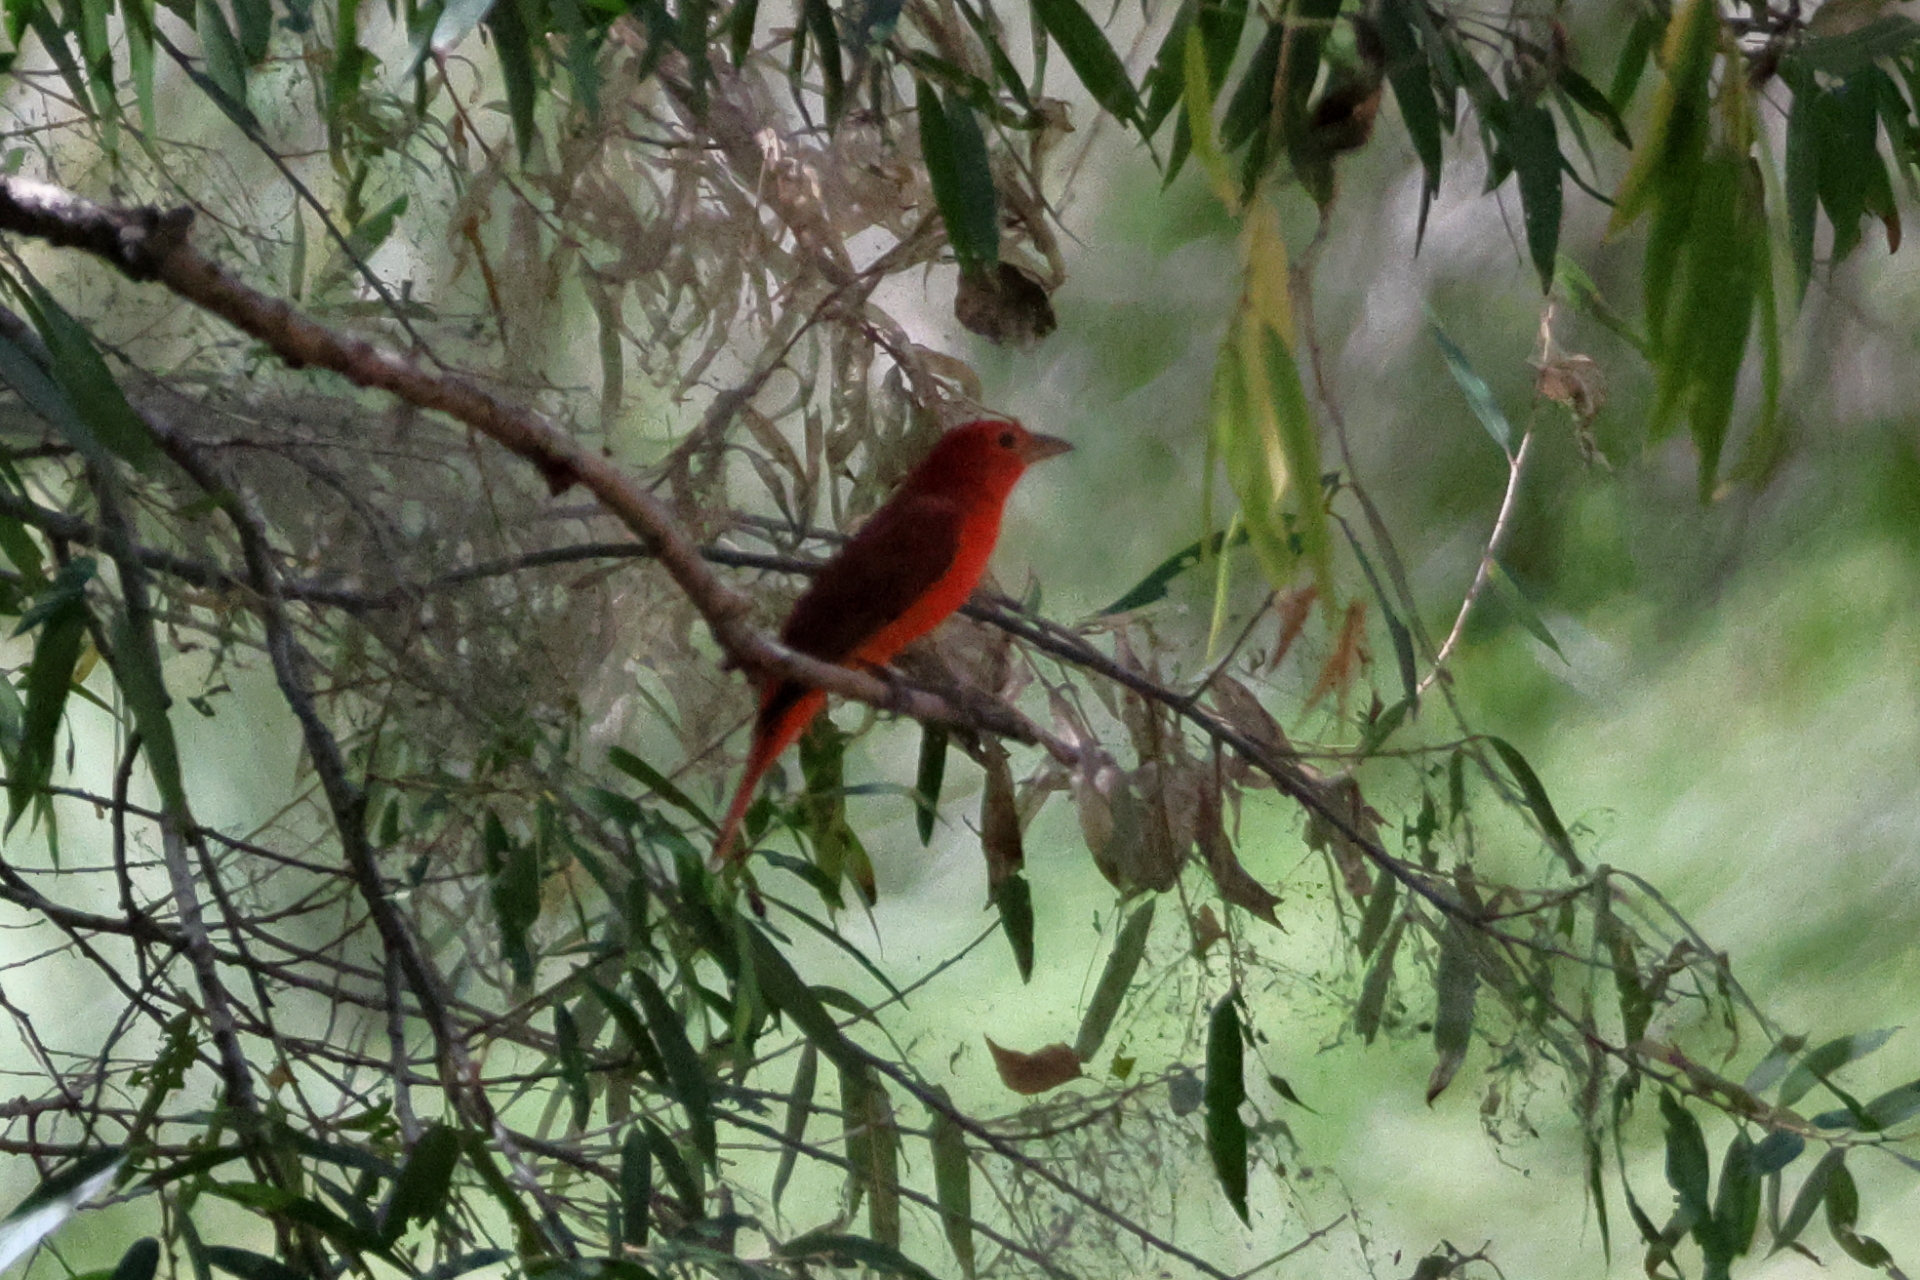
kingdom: Animalia
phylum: Chordata
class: Aves
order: Passeriformes
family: Cardinalidae
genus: Piranga
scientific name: Piranga rubra
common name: Summer tanager
